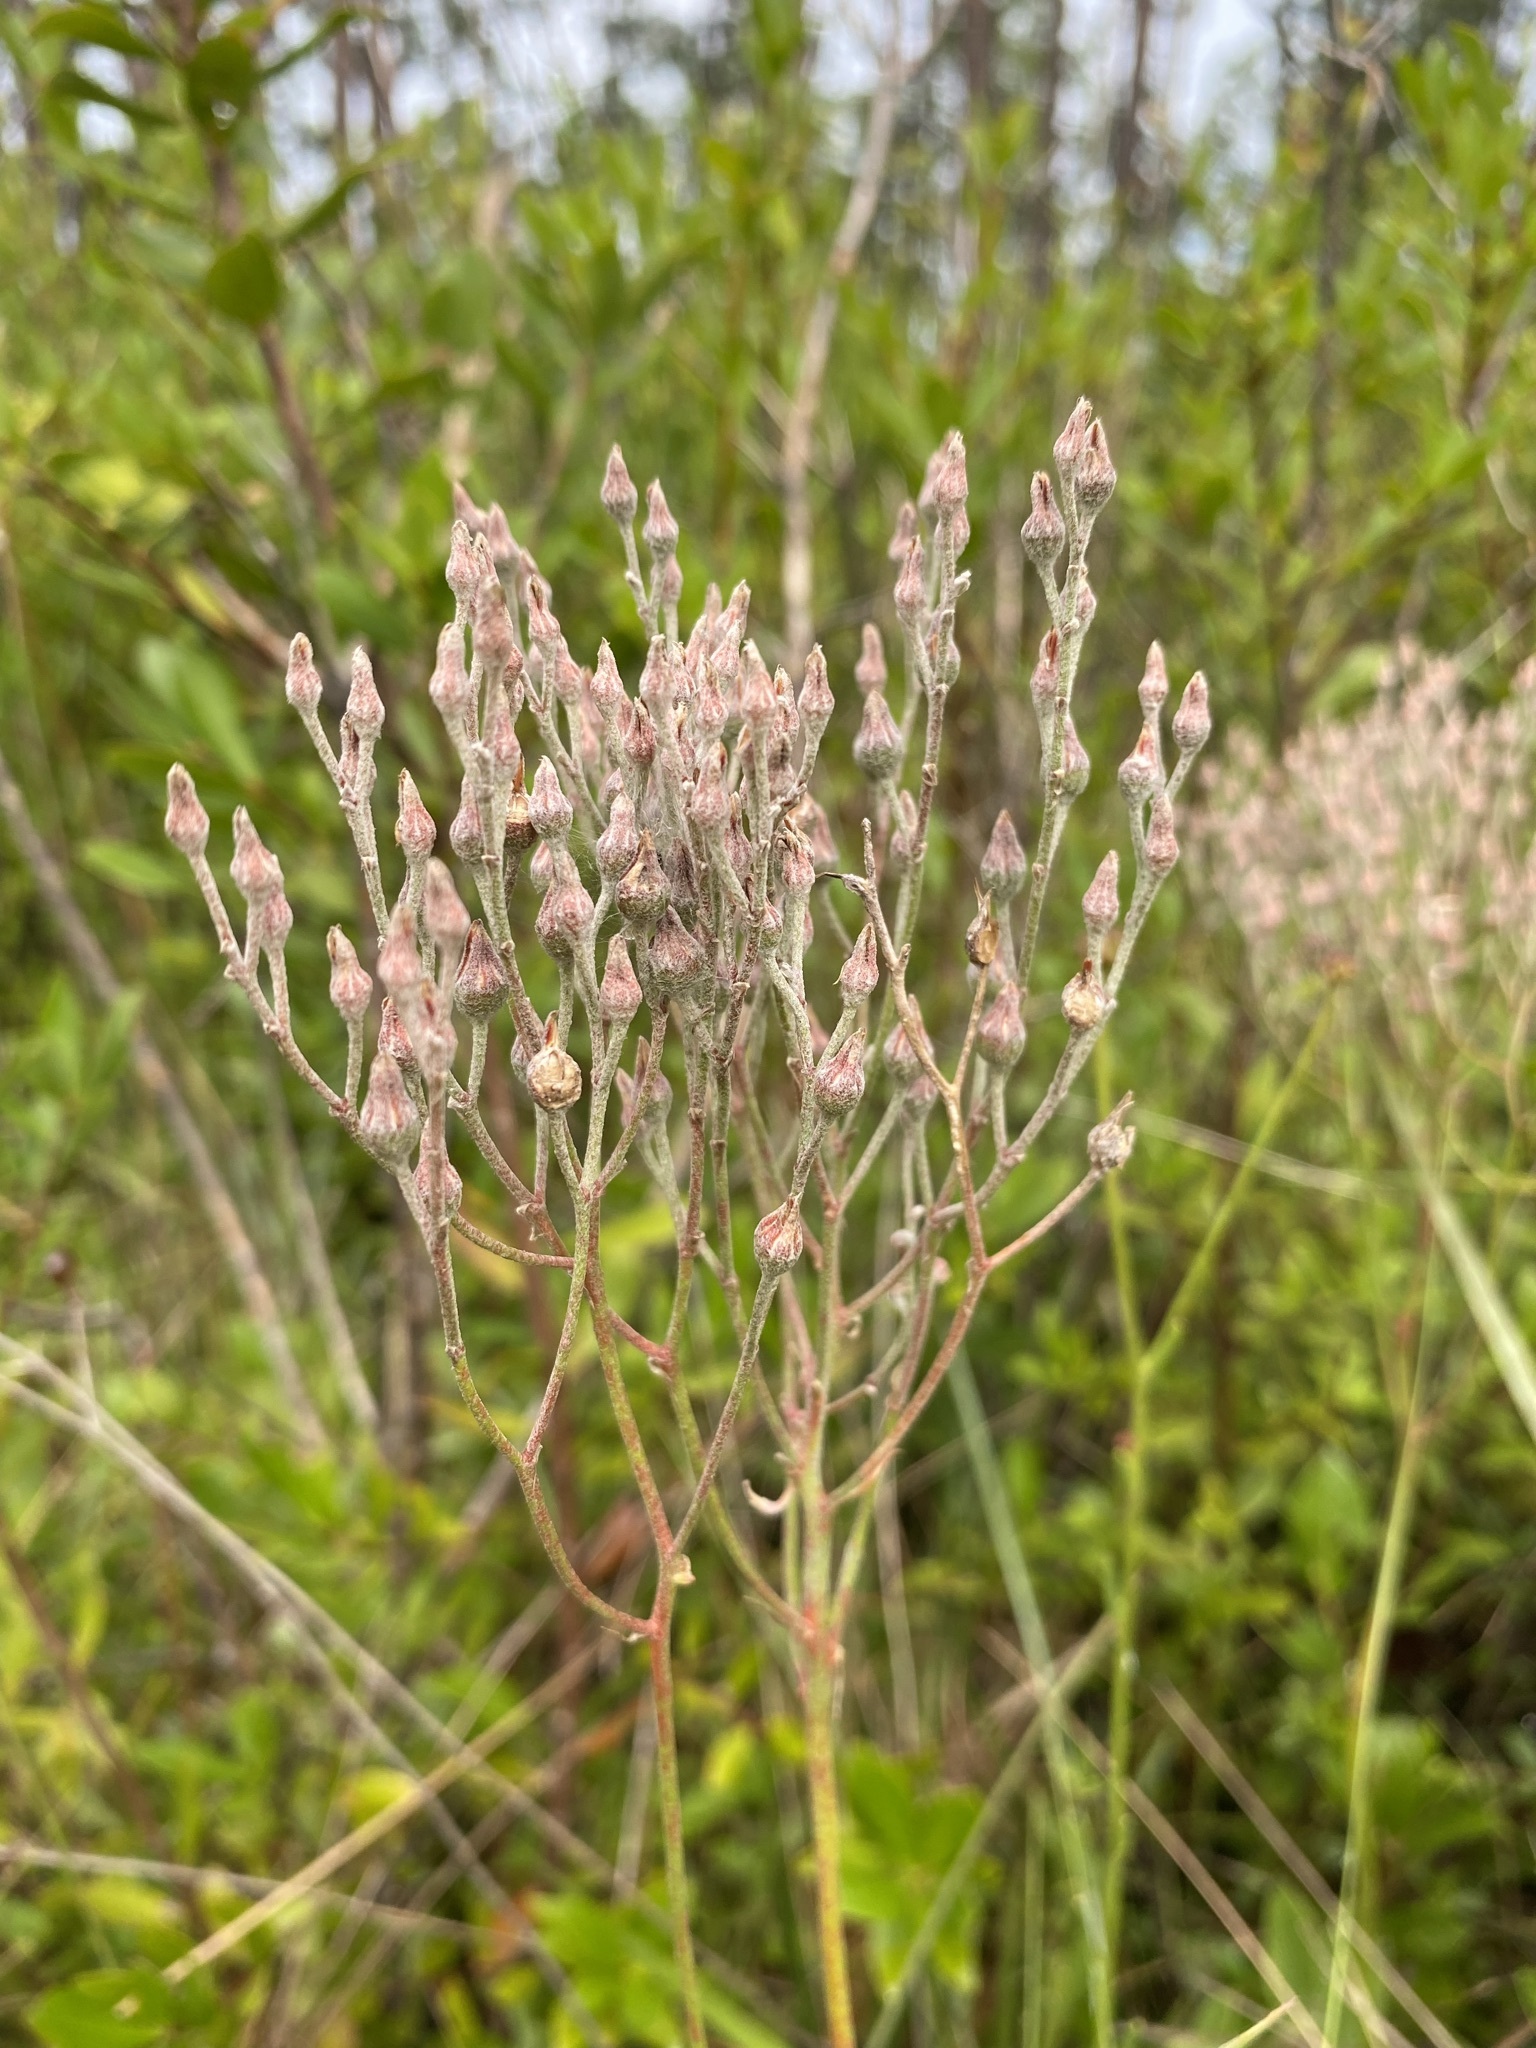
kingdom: Plantae
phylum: Tracheophyta
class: Liliopsida
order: Dioscoreales
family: Nartheciaceae
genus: Lophiola
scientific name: Lophiola aurea
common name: Golden-crest
